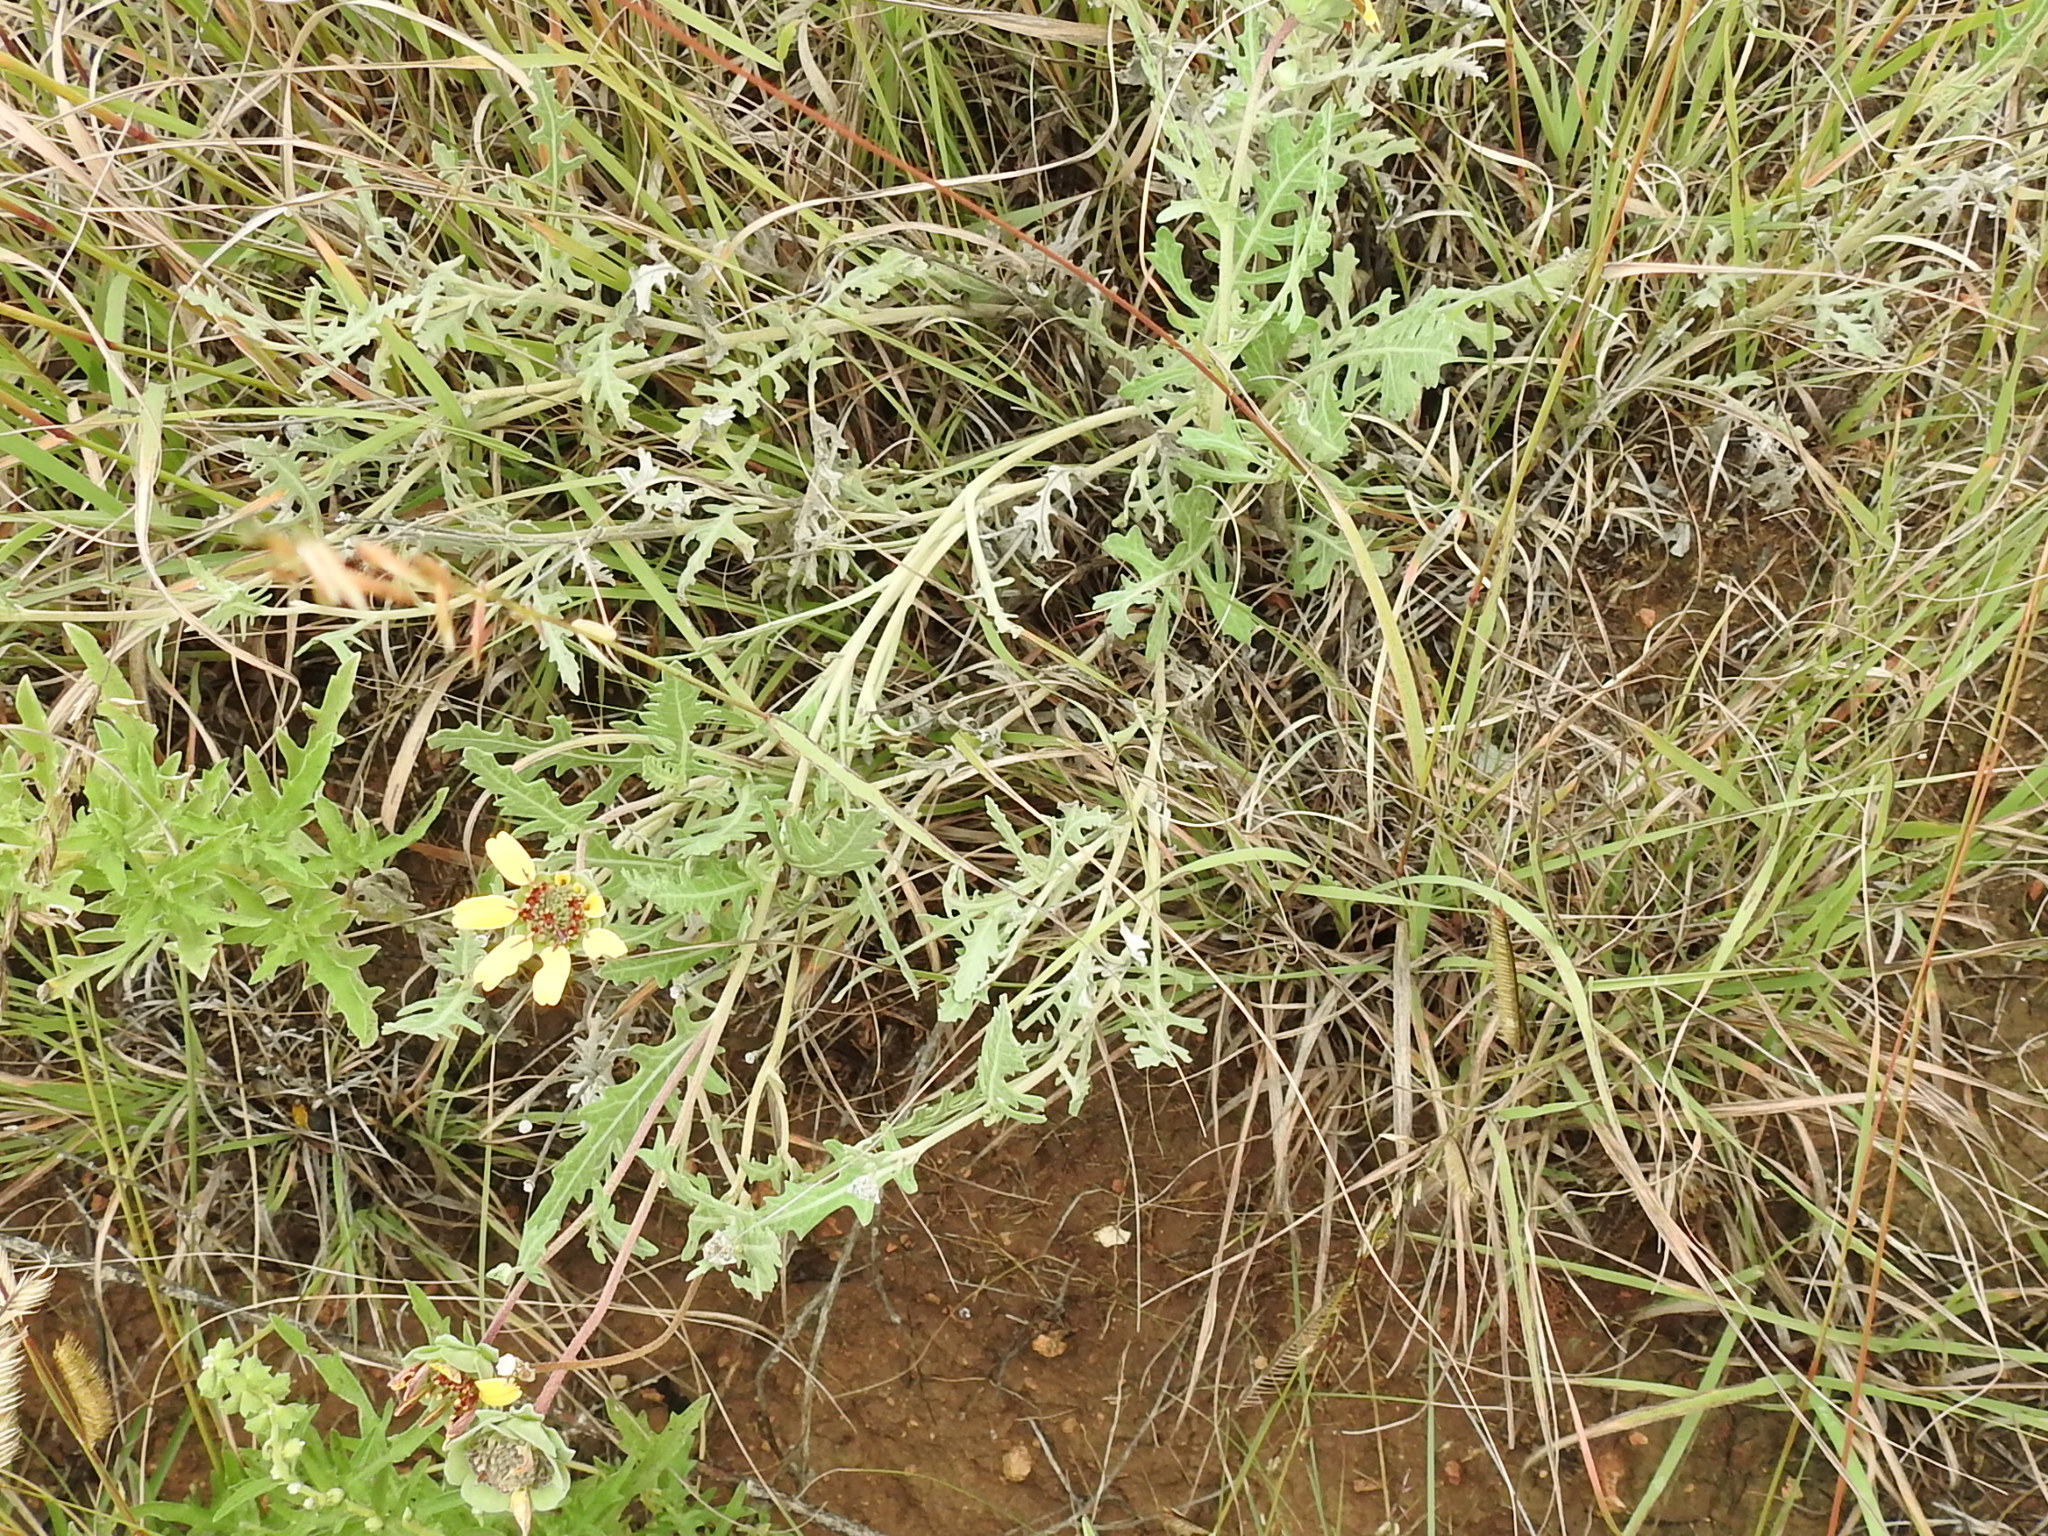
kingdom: Plantae
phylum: Tracheophyta
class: Magnoliopsida
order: Asterales
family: Asteraceae
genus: Berlandiera
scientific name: Berlandiera lyrata
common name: Chocolate-flower
